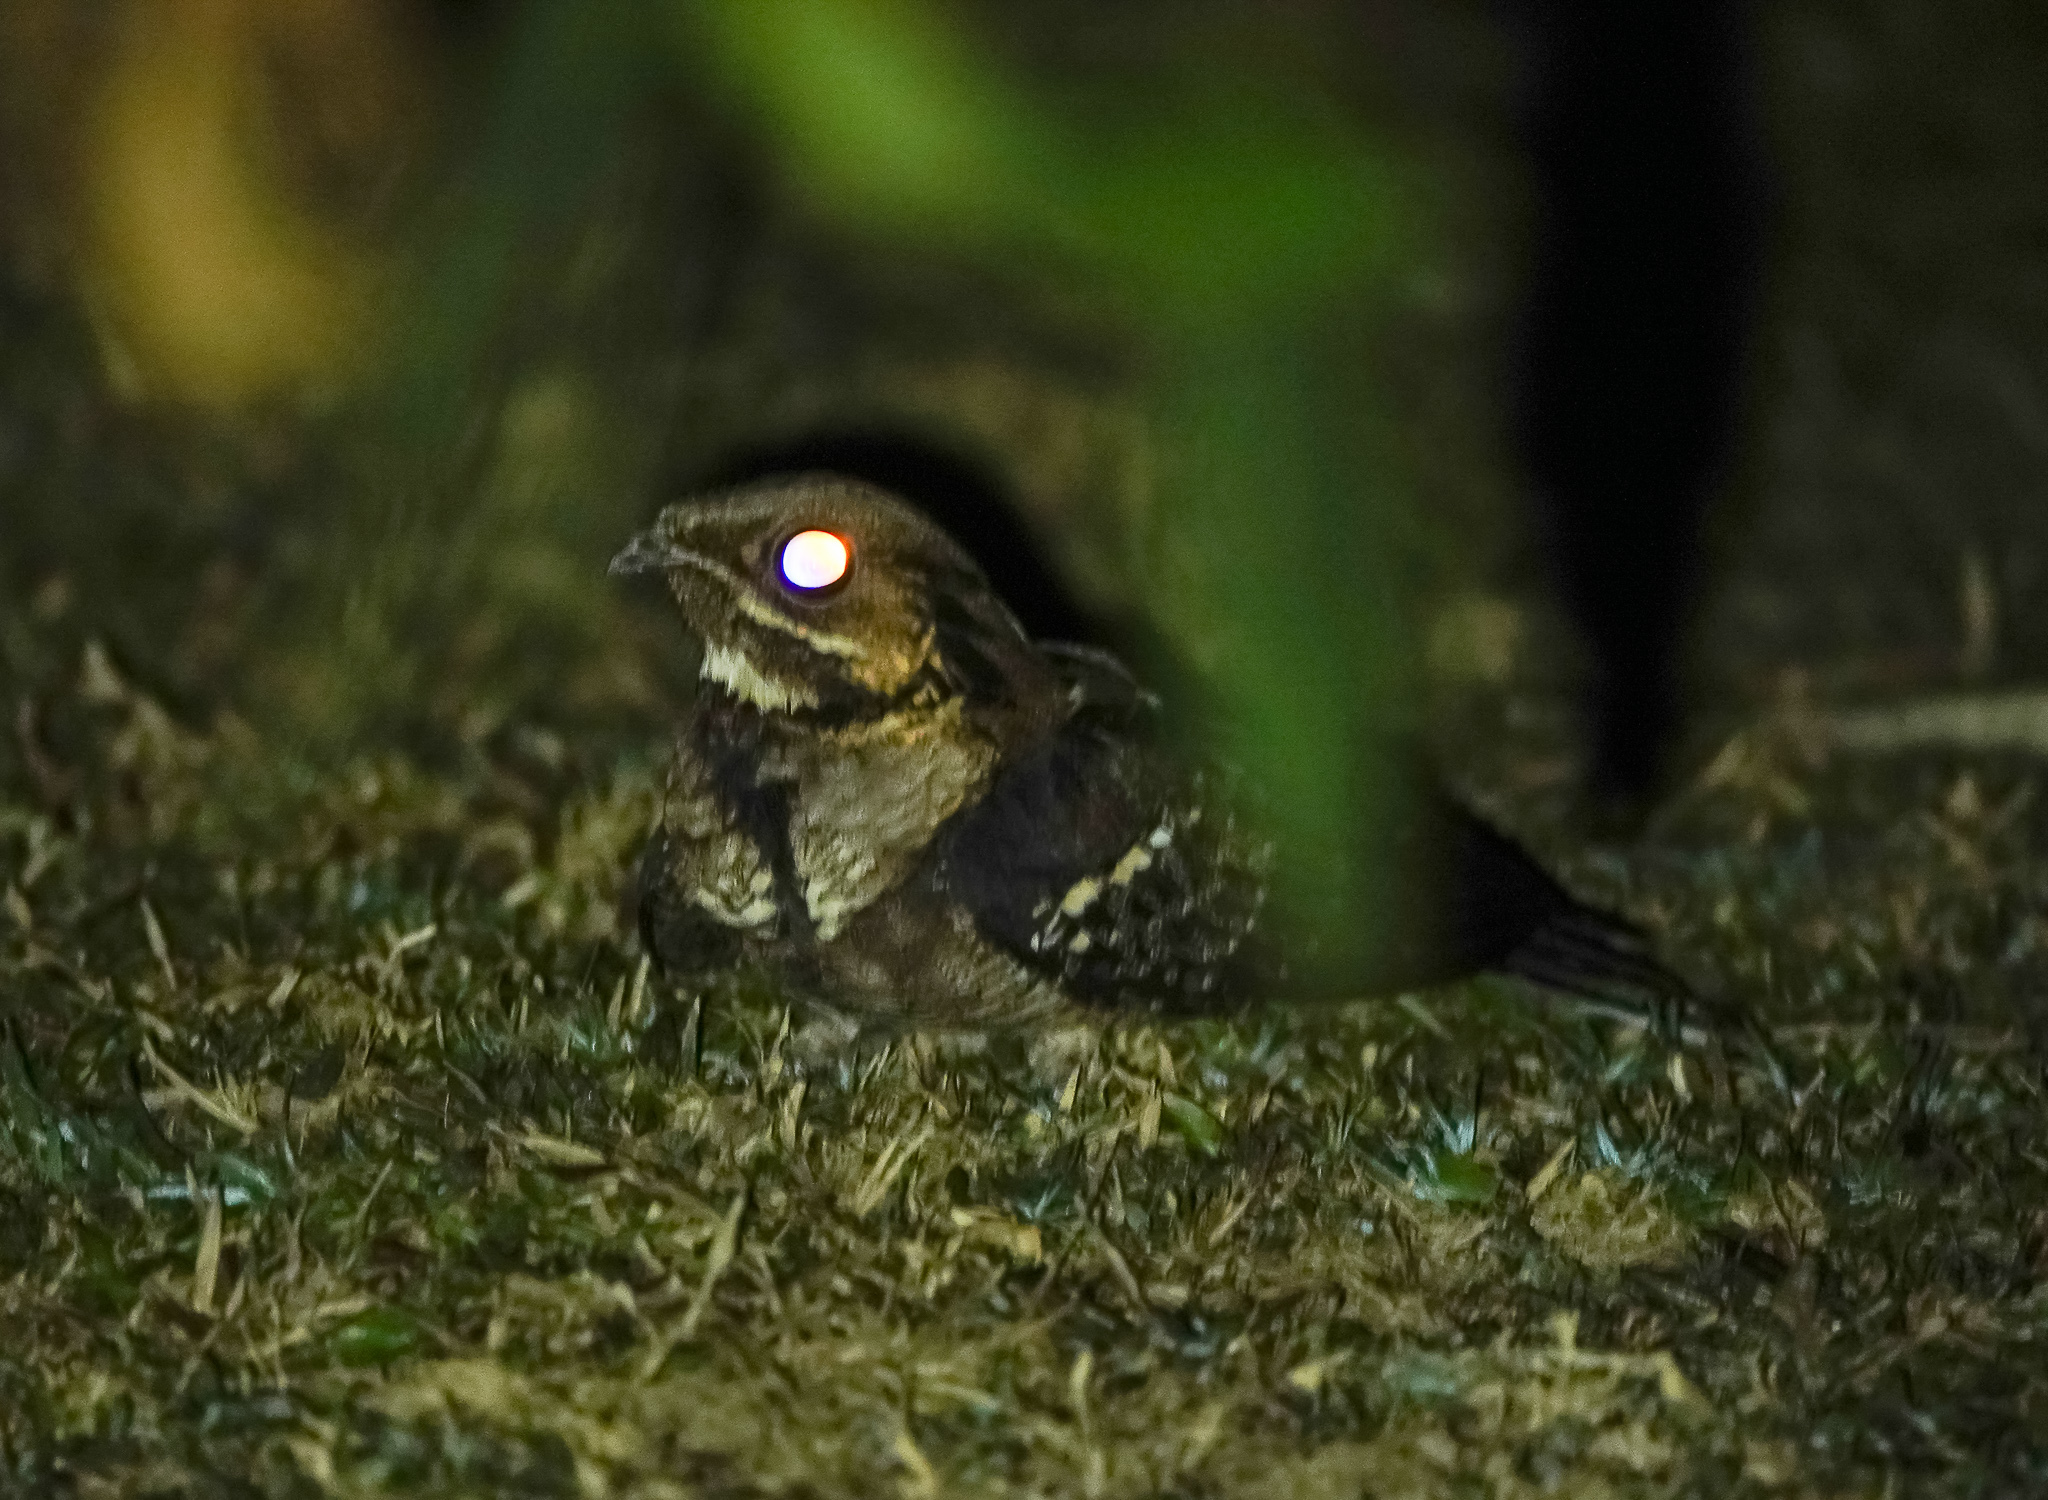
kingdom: Animalia
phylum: Chordata
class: Aves
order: Caprimulgiformes
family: Caprimulgidae
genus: Caprimulgus
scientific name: Caprimulgus macrurus
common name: Large-tailed nightjar
